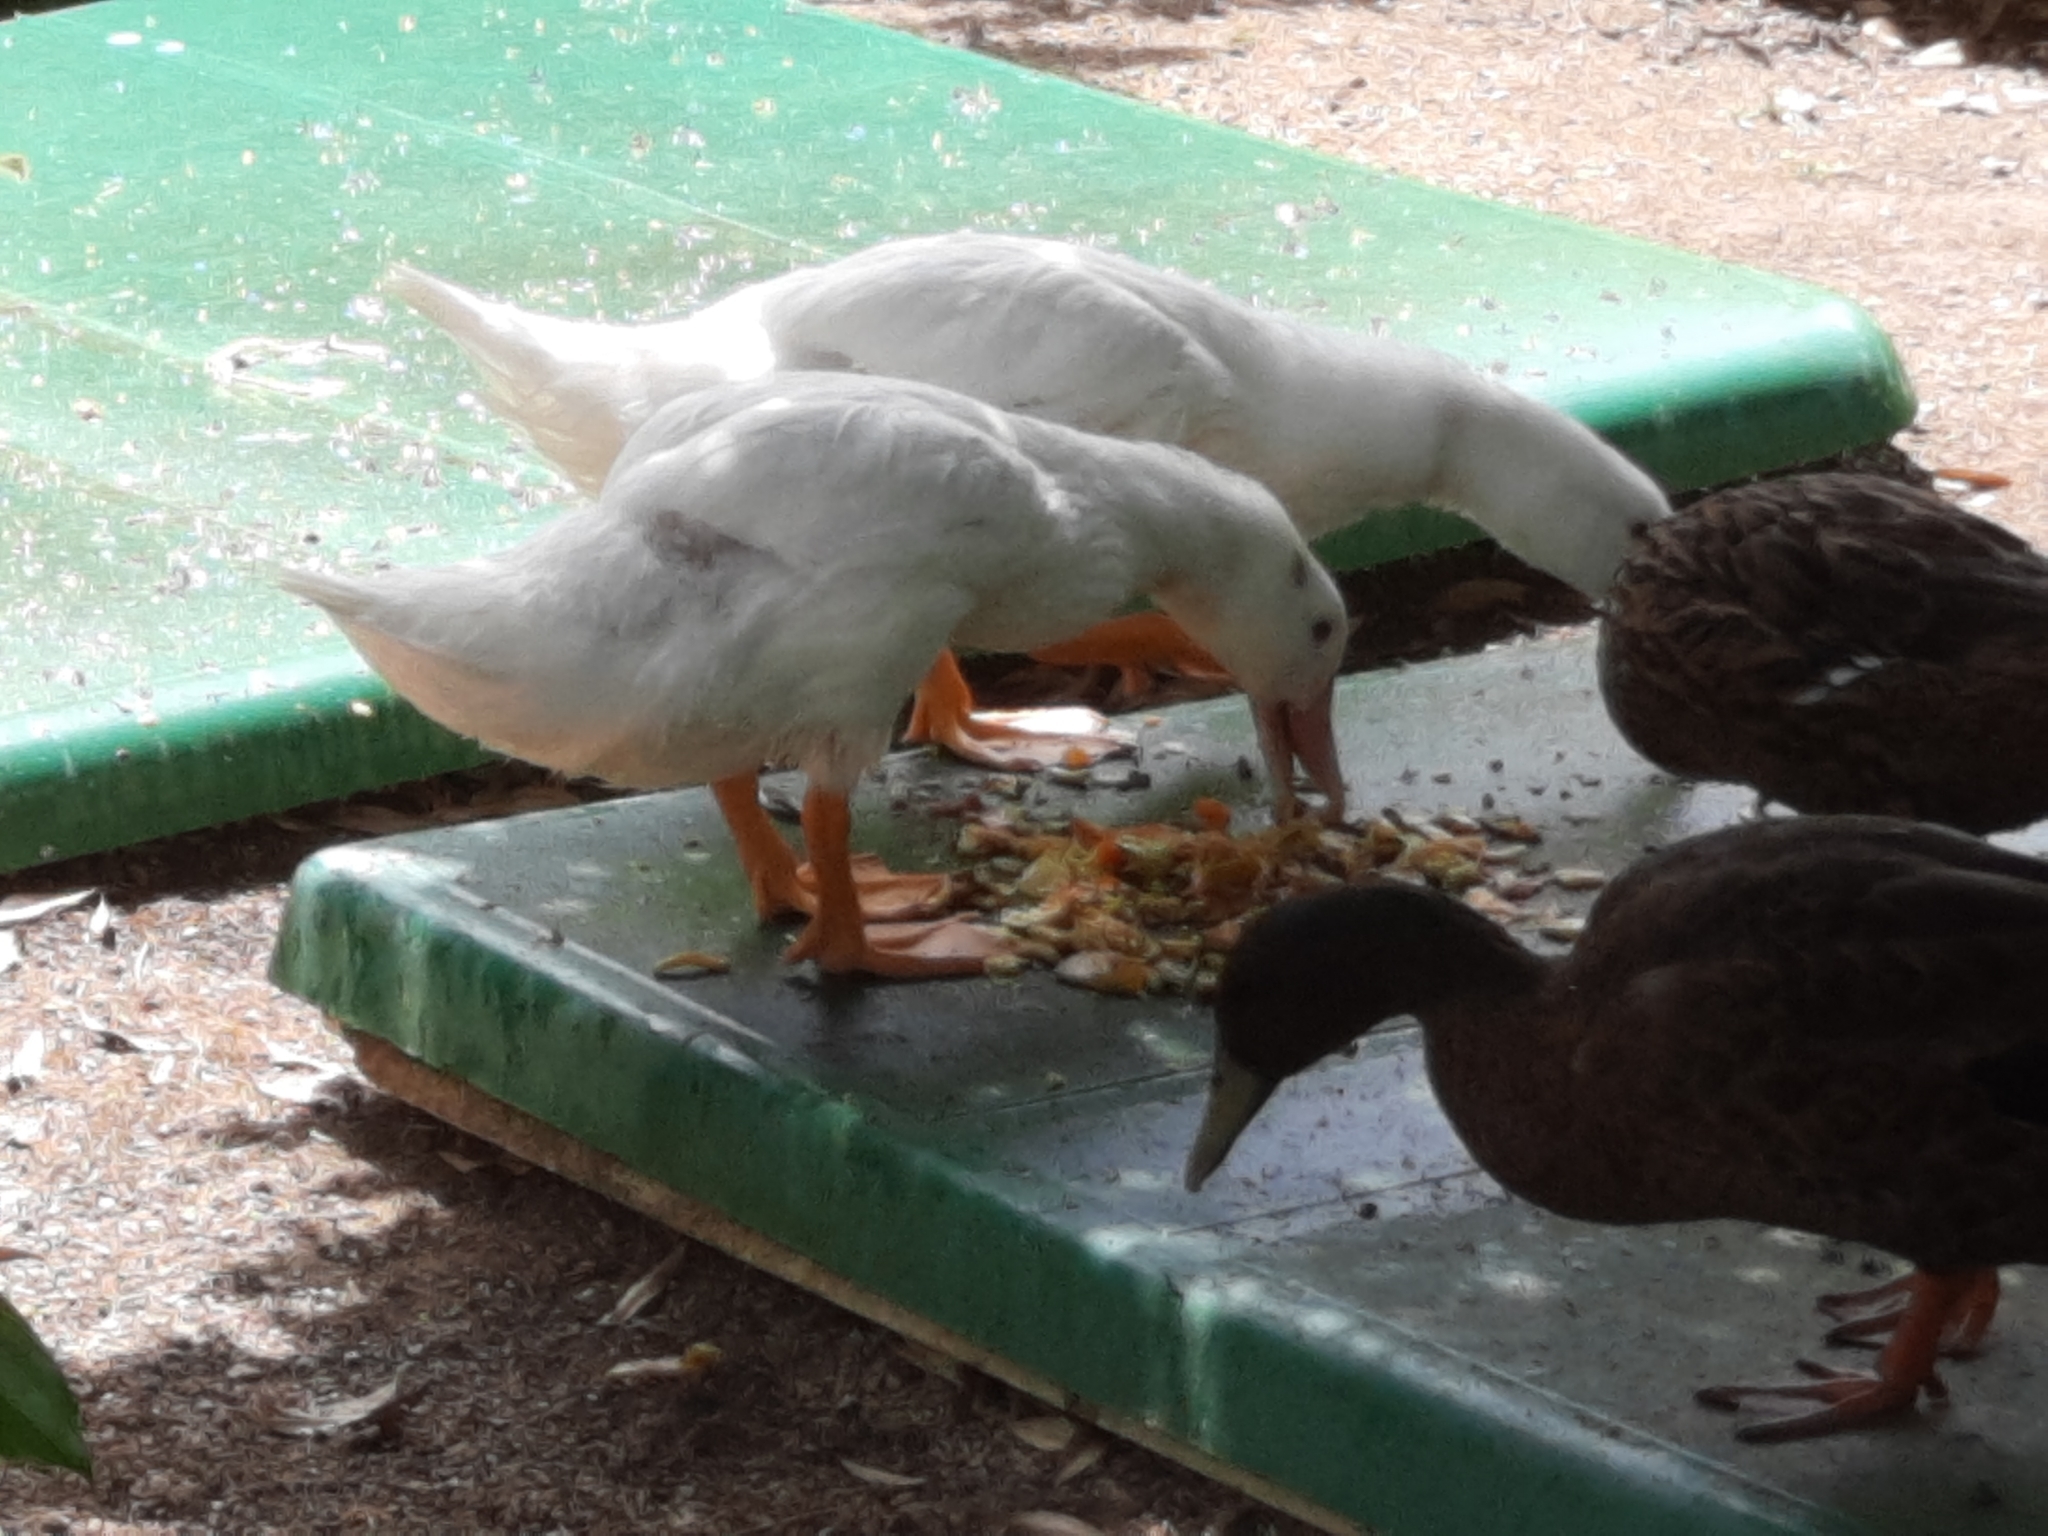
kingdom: Animalia
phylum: Chordata
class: Aves
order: Anseriformes
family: Anatidae
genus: Anas
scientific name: Anas platyrhynchos
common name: Mallard
